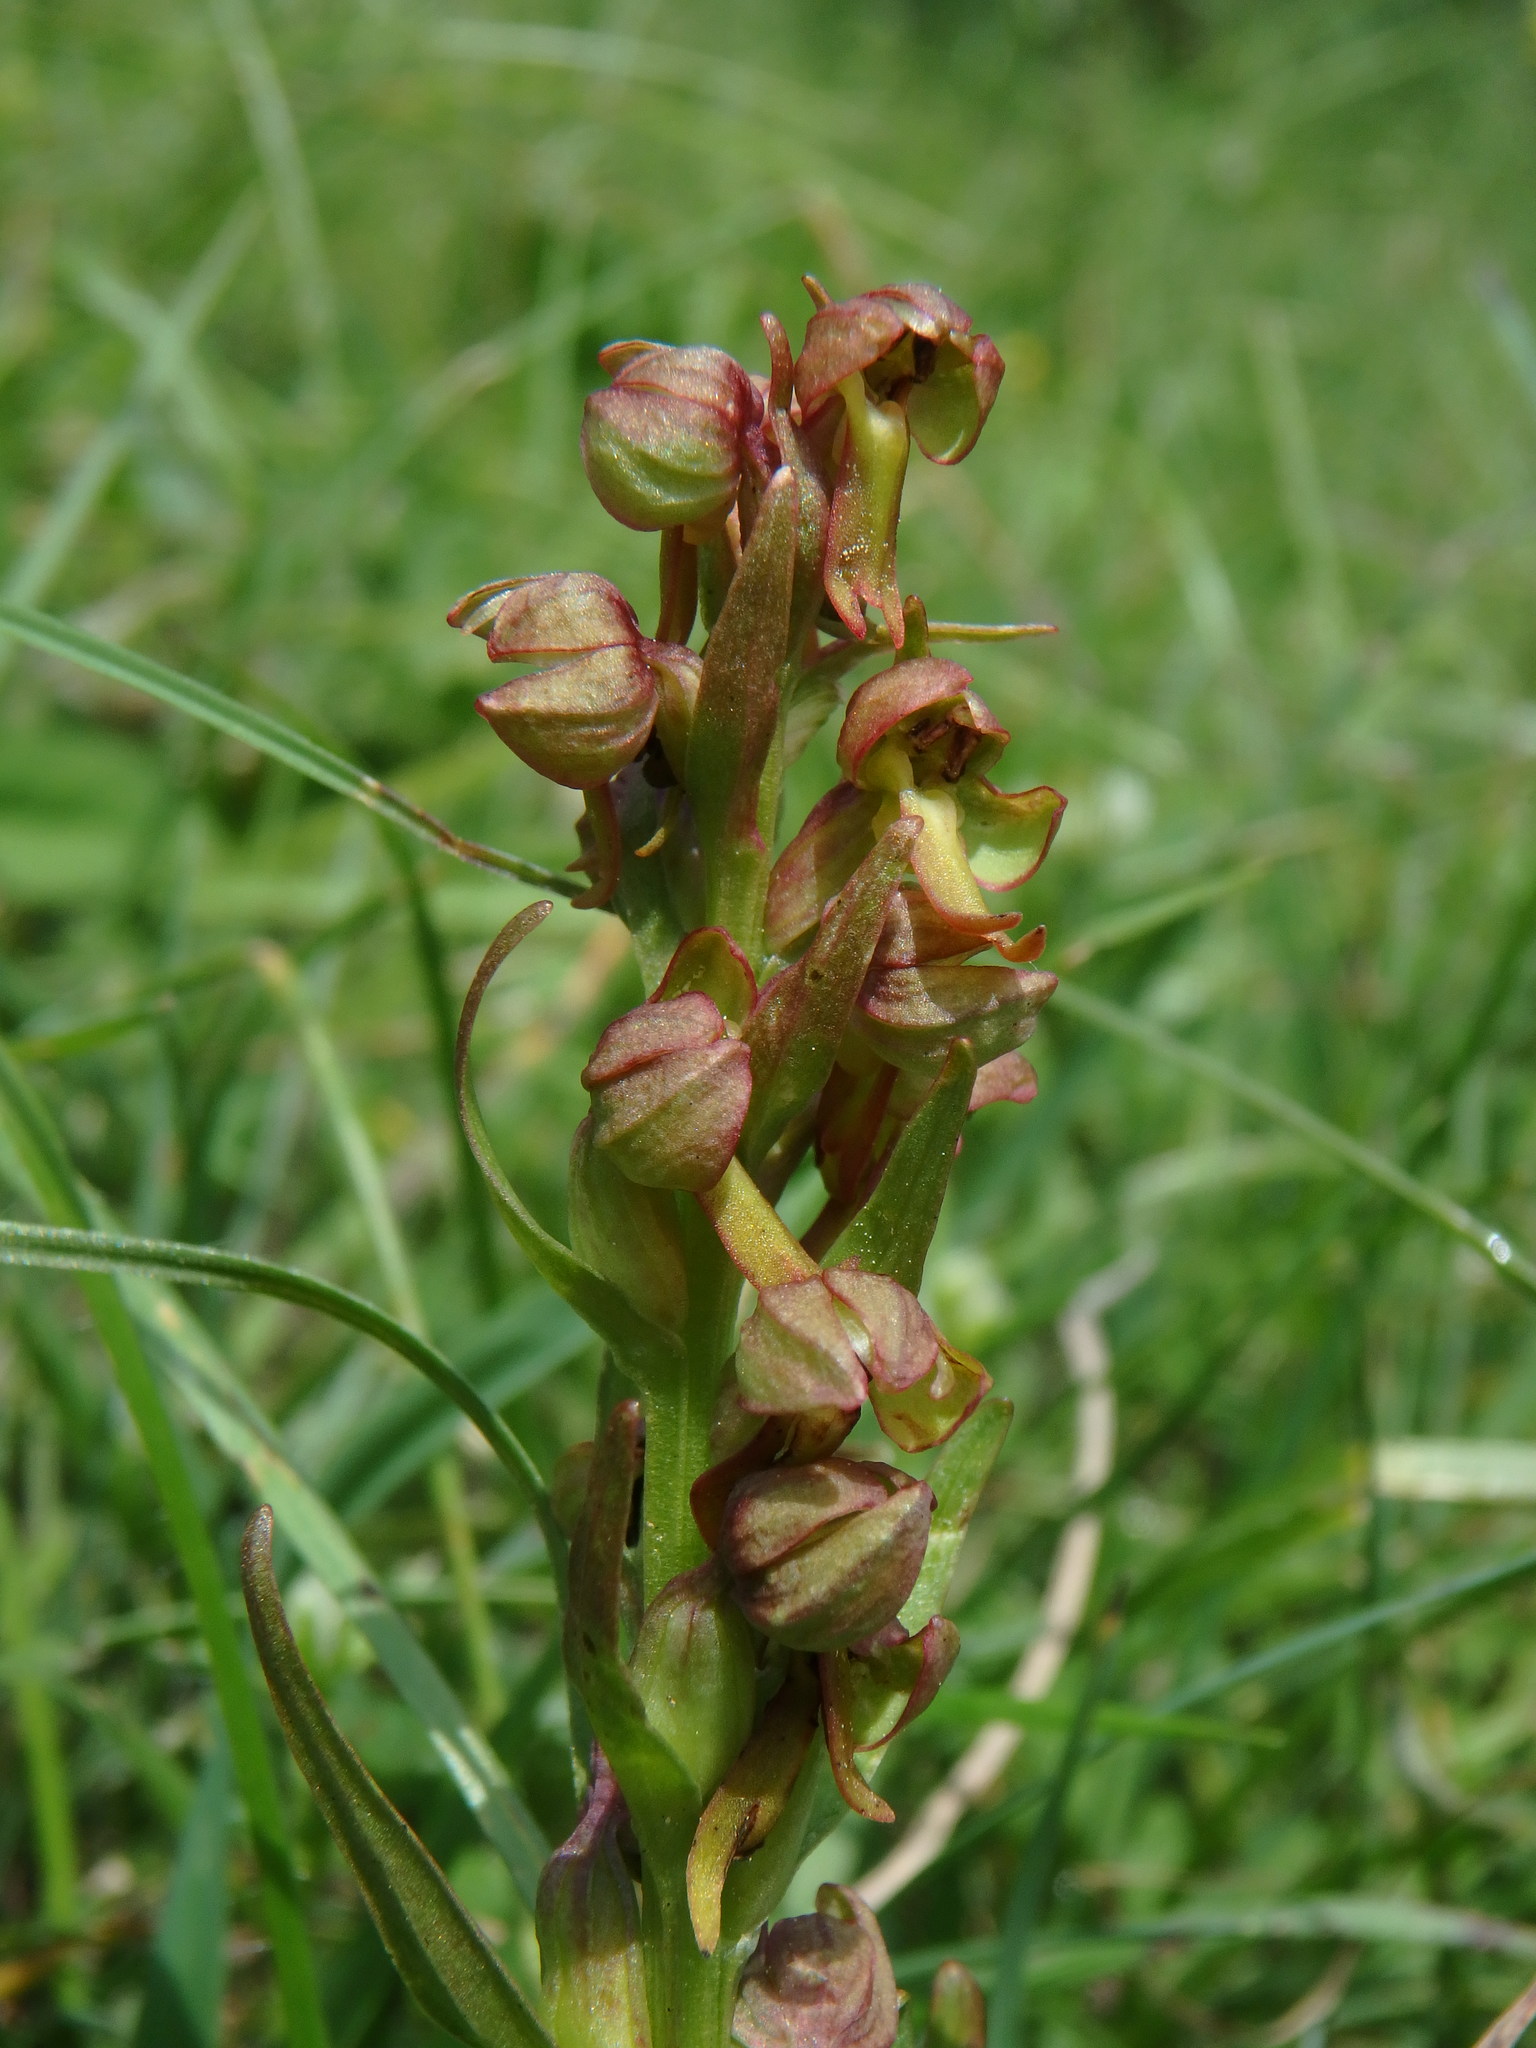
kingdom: Plantae
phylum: Tracheophyta
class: Liliopsida
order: Asparagales
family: Orchidaceae
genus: Dactylorhiza
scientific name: Dactylorhiza viridis
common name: Longbract frog orchid
